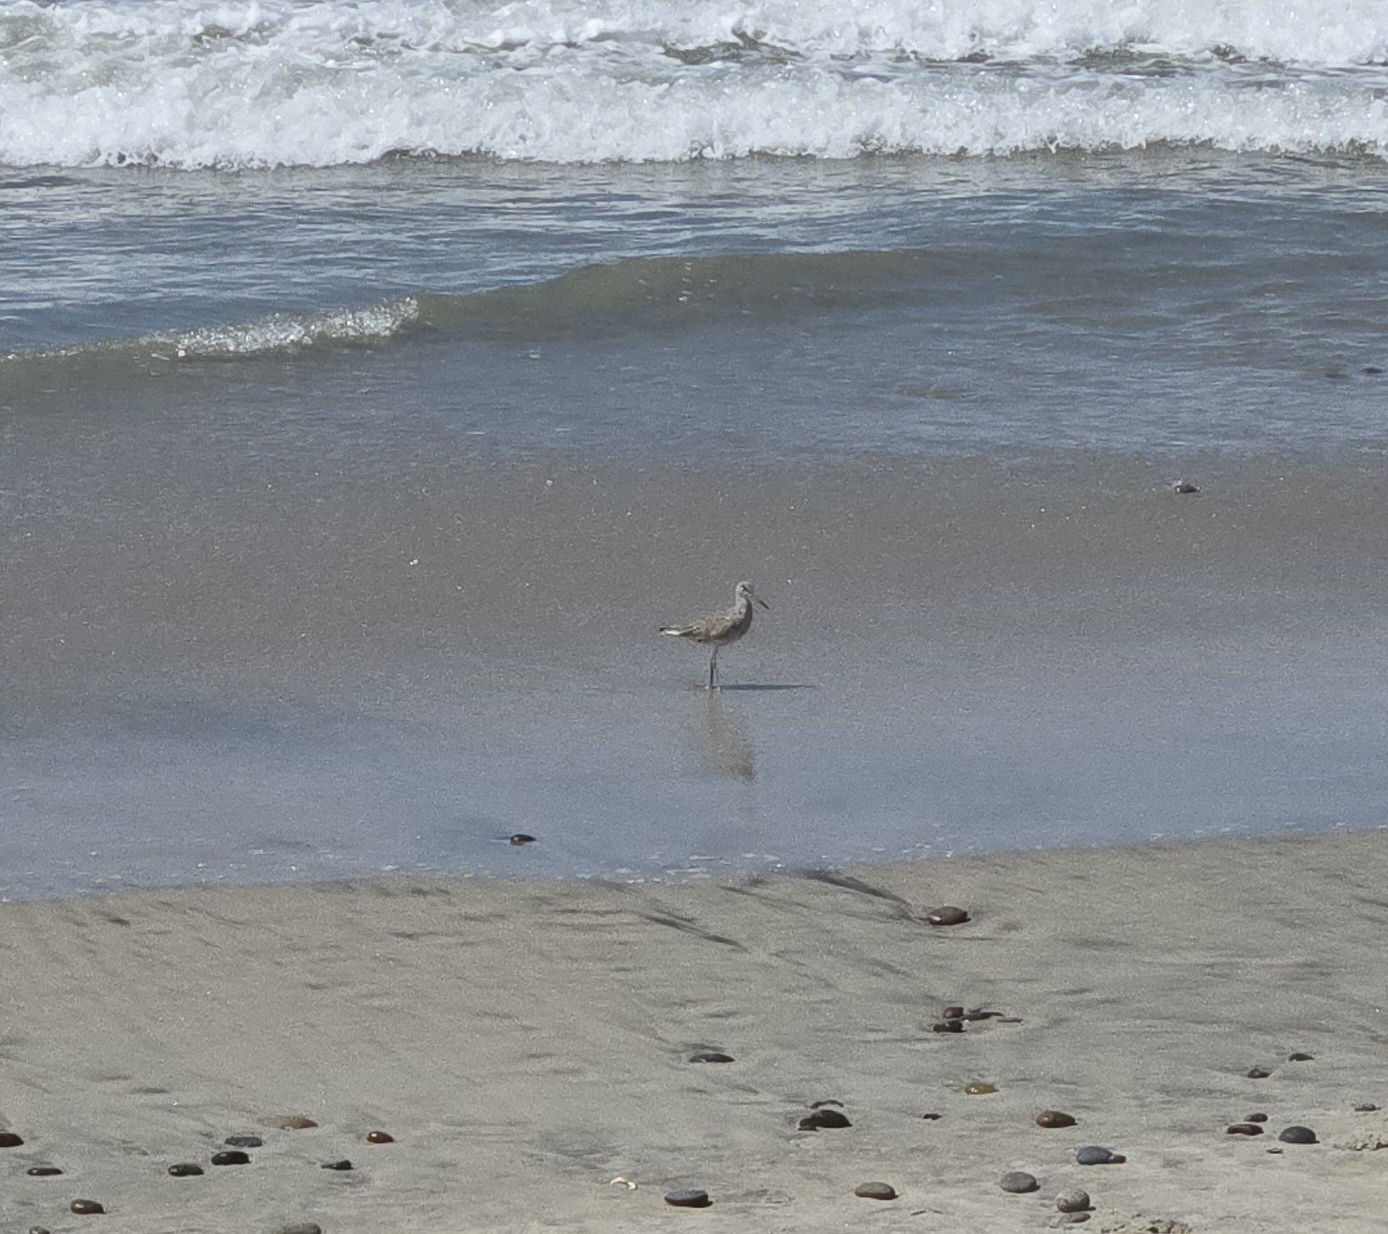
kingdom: Animalia
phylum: Chordata
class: Aves
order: Charadriiformes
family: Scolopacidae
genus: Tringa
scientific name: Tringa semipalmata
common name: Willet
